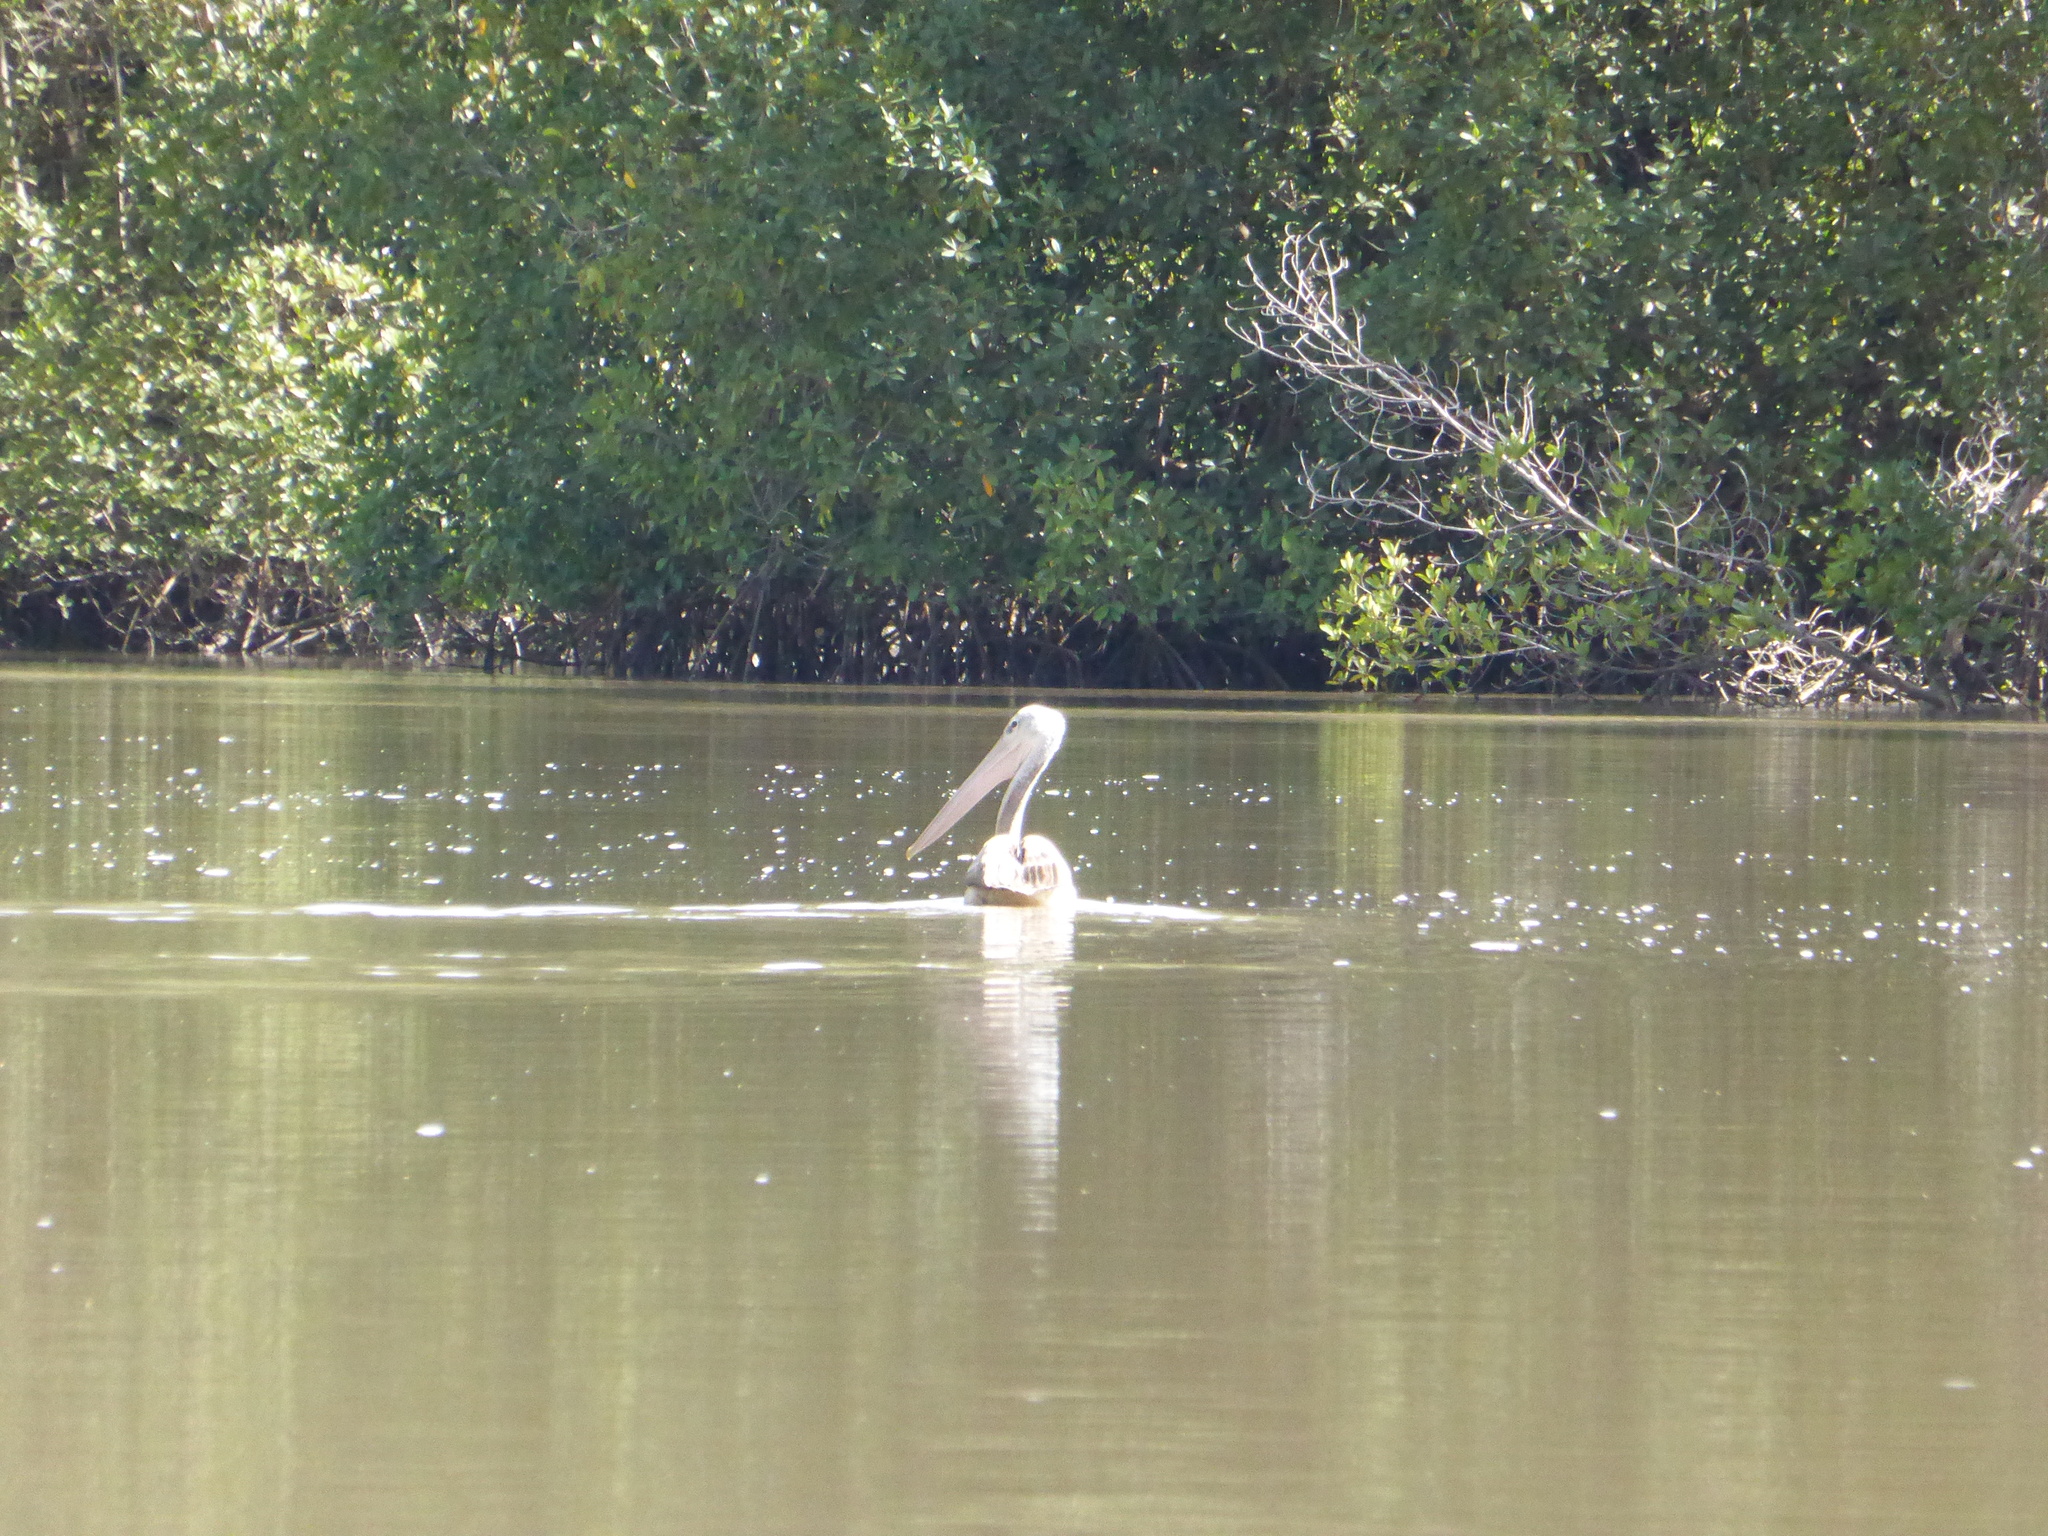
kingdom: Animalia
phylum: Chordata
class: Aves
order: Pelecaniformes
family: Pelecanidae
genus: Pelecanus
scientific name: Pelecanus rufescens
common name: Pink-backed pelican
